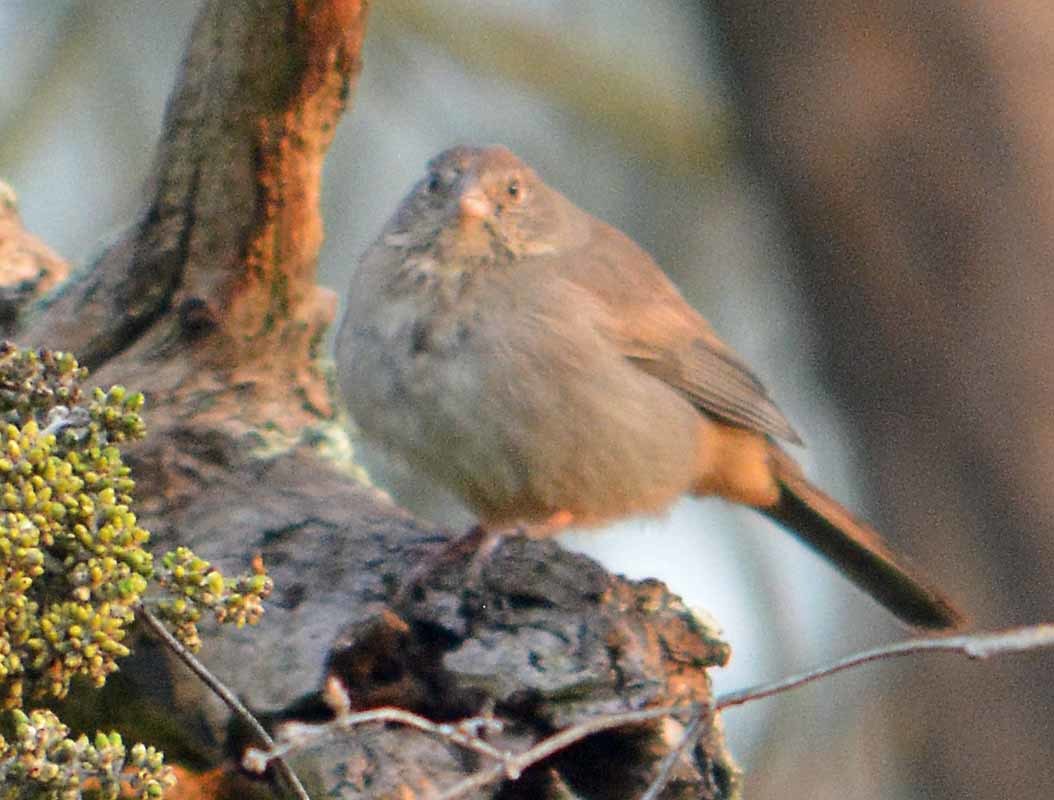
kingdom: Animalia
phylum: Chordata
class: Aves
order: Passeriformes
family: Passerellidae
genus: Melozone
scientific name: Melozone fusca
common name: Canyon towhee
